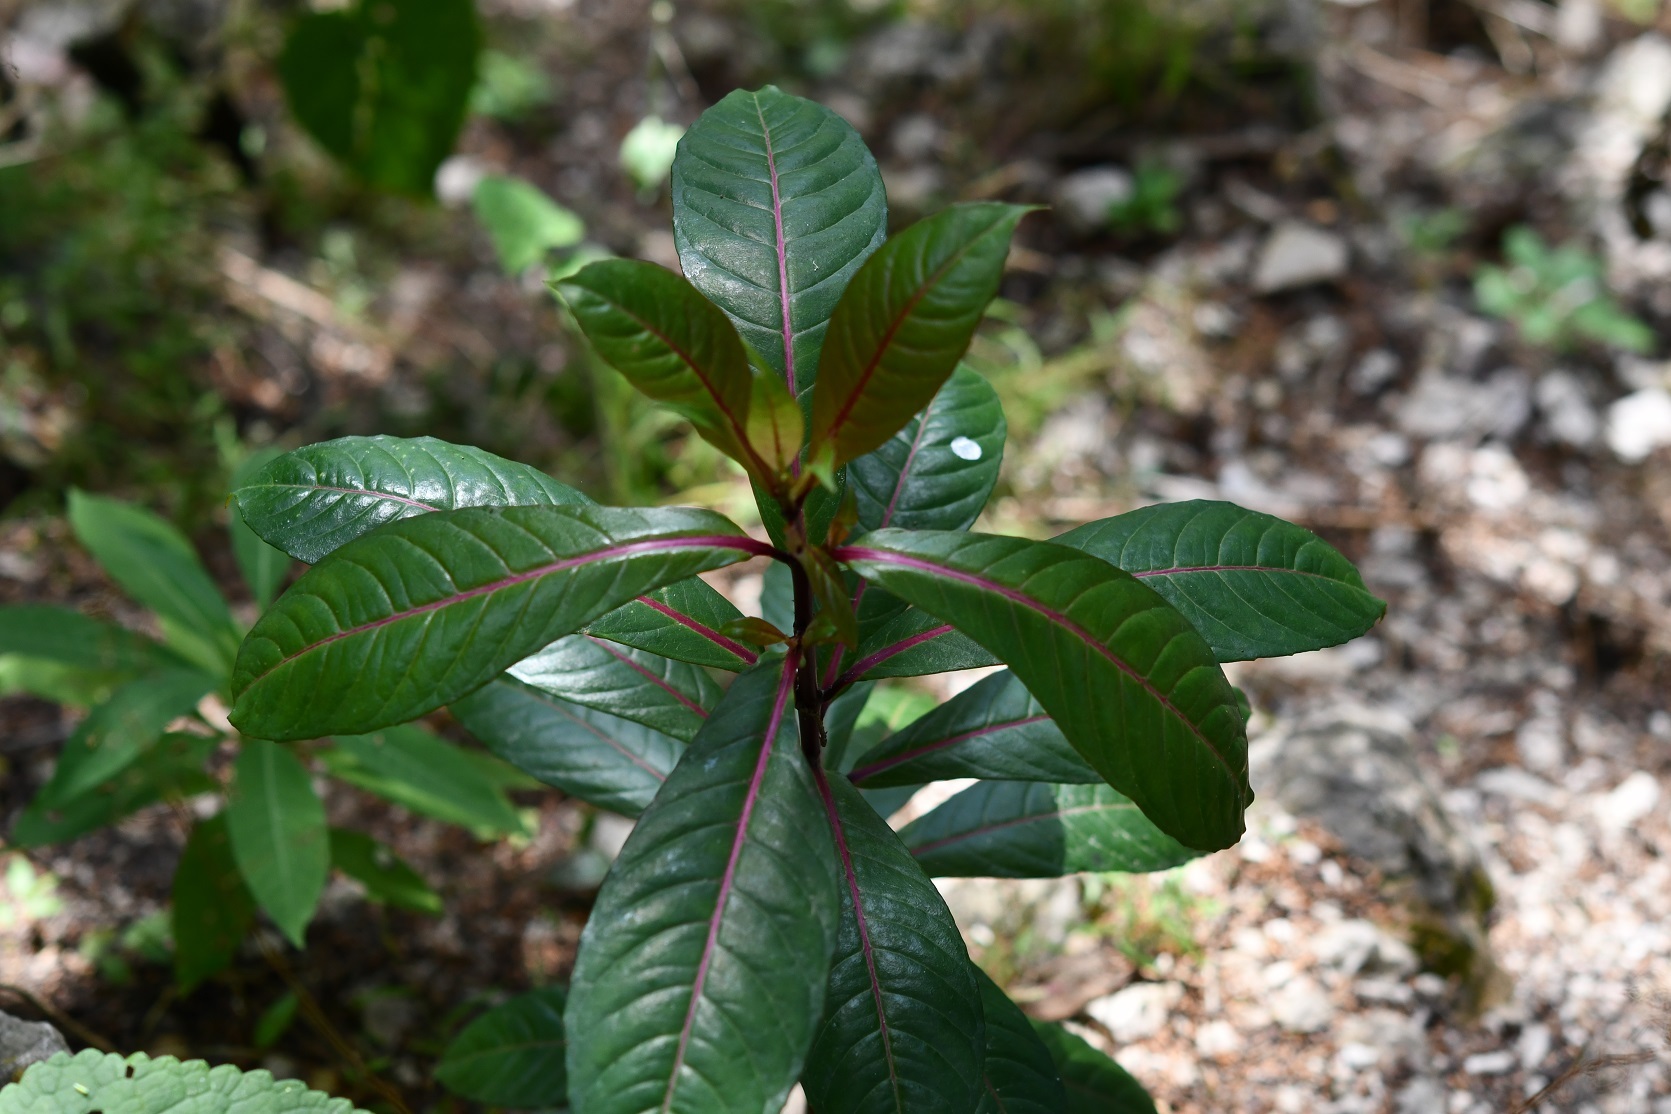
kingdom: Plantae
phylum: Tracheophyta
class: Magnoliopsida
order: Myrtales
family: Onagraceae
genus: Fuchsia
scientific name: Fuchsia paniculata
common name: Shrubby fuchsia
